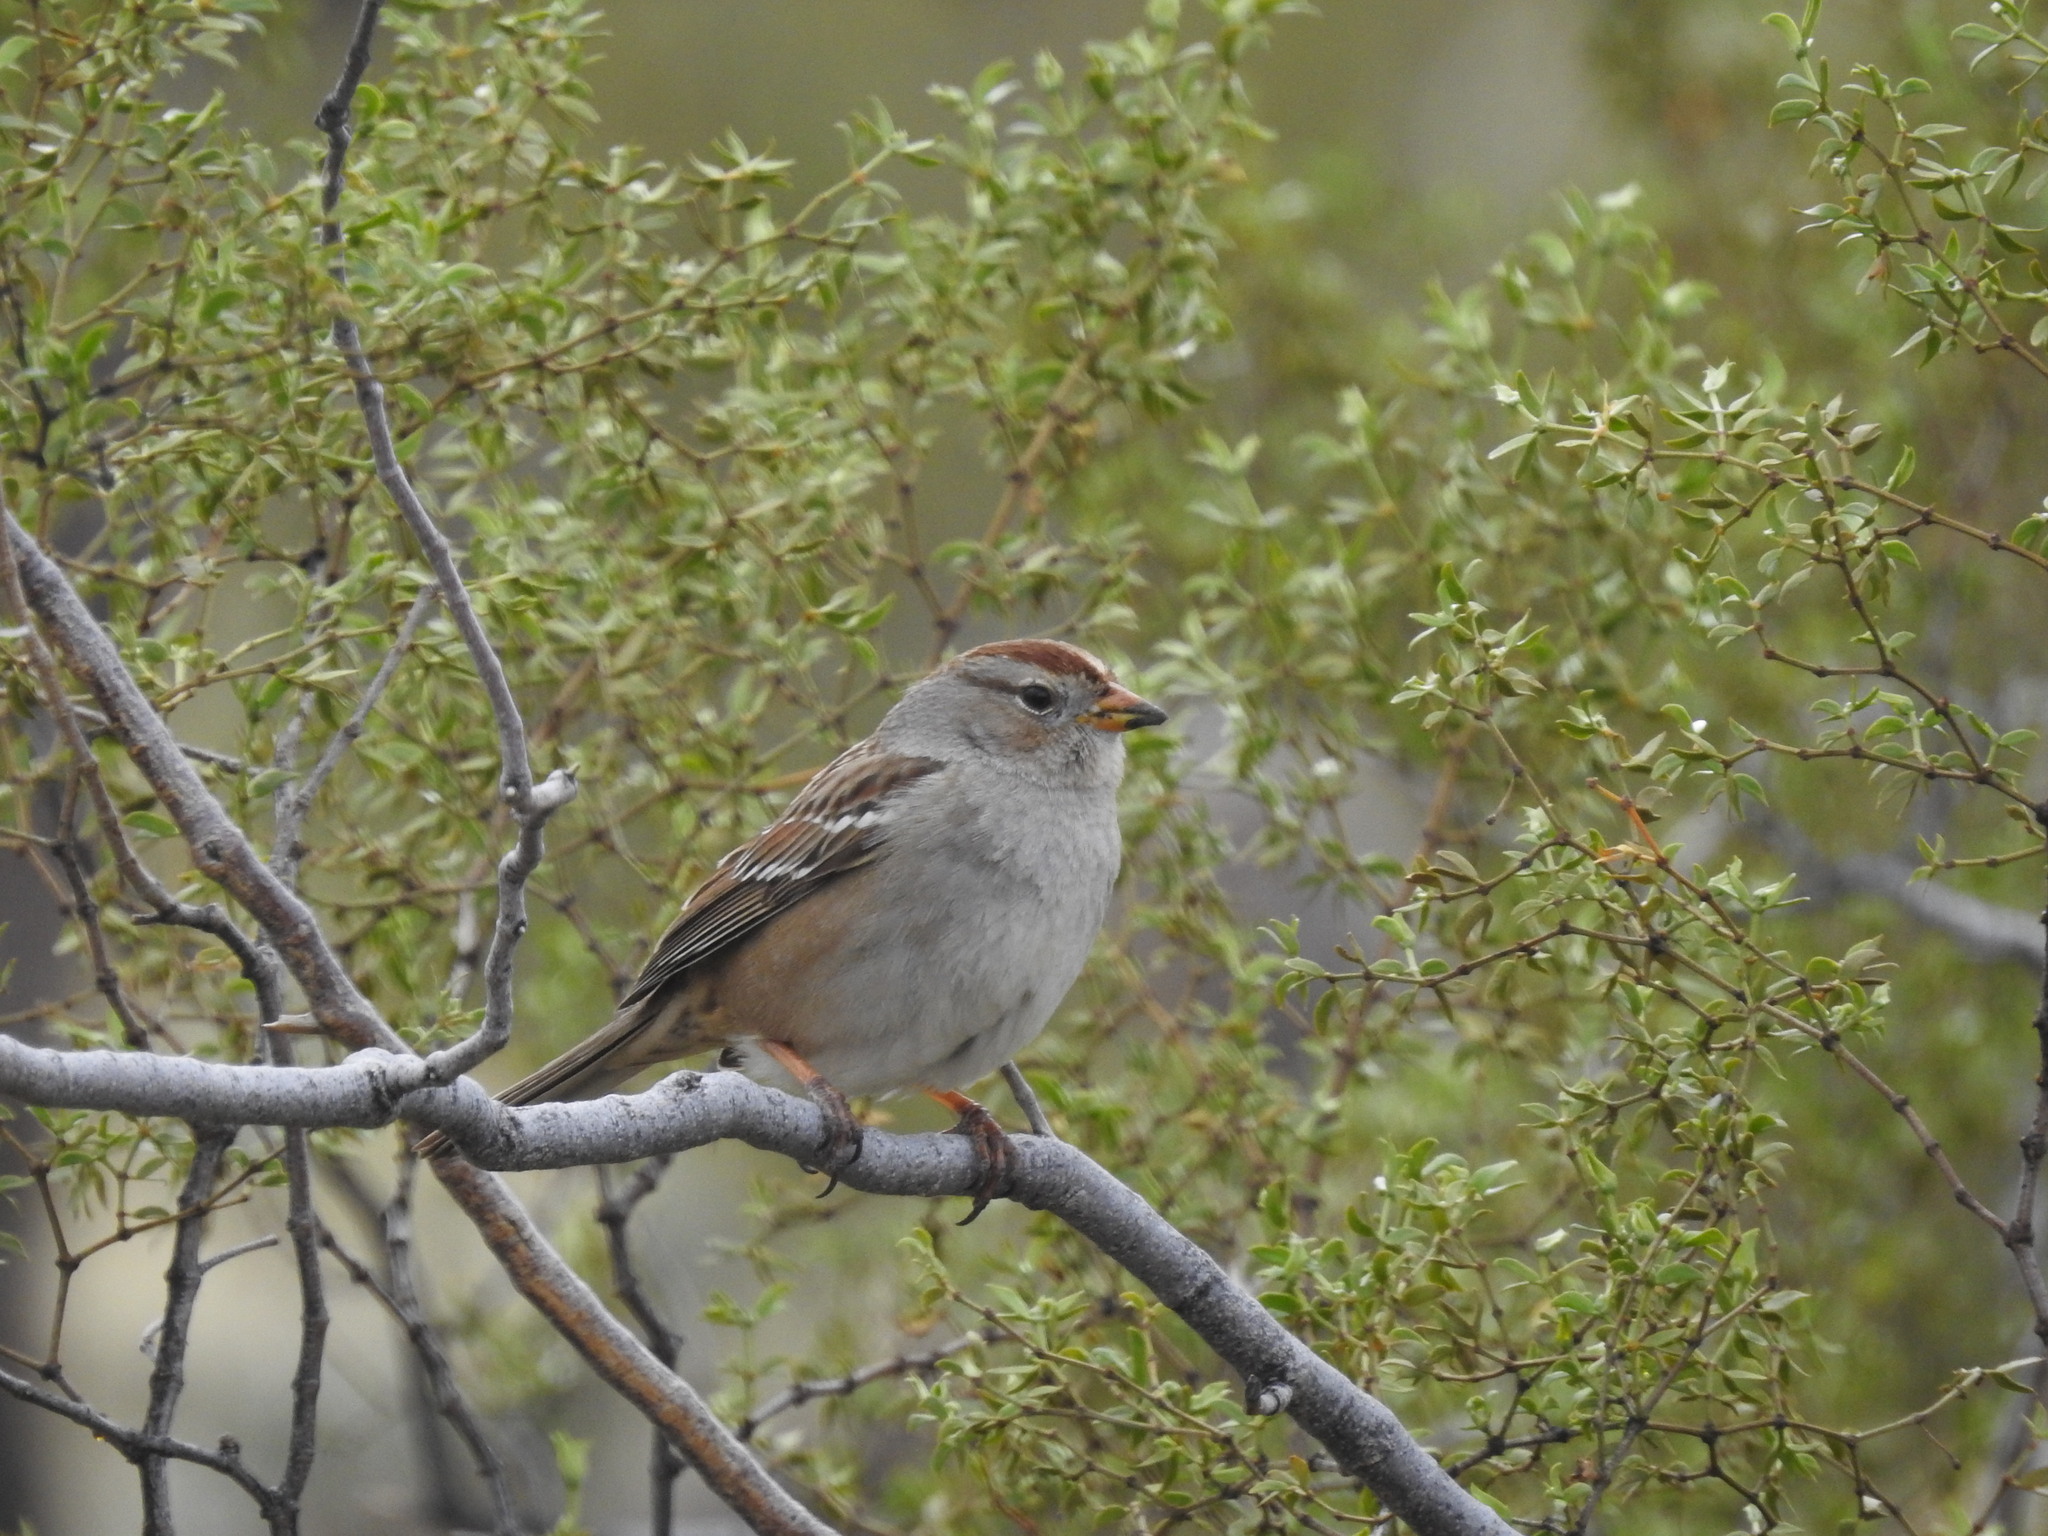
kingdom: Animalia
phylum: Chordata
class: Aves
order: Passeriformes
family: Passerellidae
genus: Zonotrichia
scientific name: Zonotrichia leucophrys
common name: White-crowned sparrow
